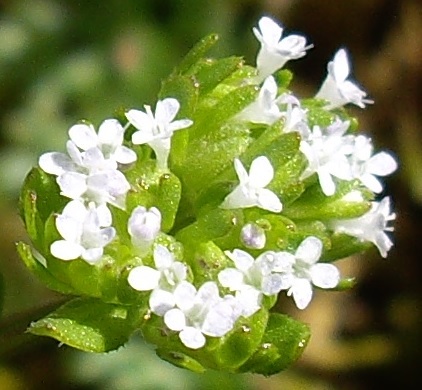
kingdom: Plantae
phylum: Tracheophyta
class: Magnoliopsida
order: Dipsacales
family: Caprifoliaceae
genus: Valerianella
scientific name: Valerianella
